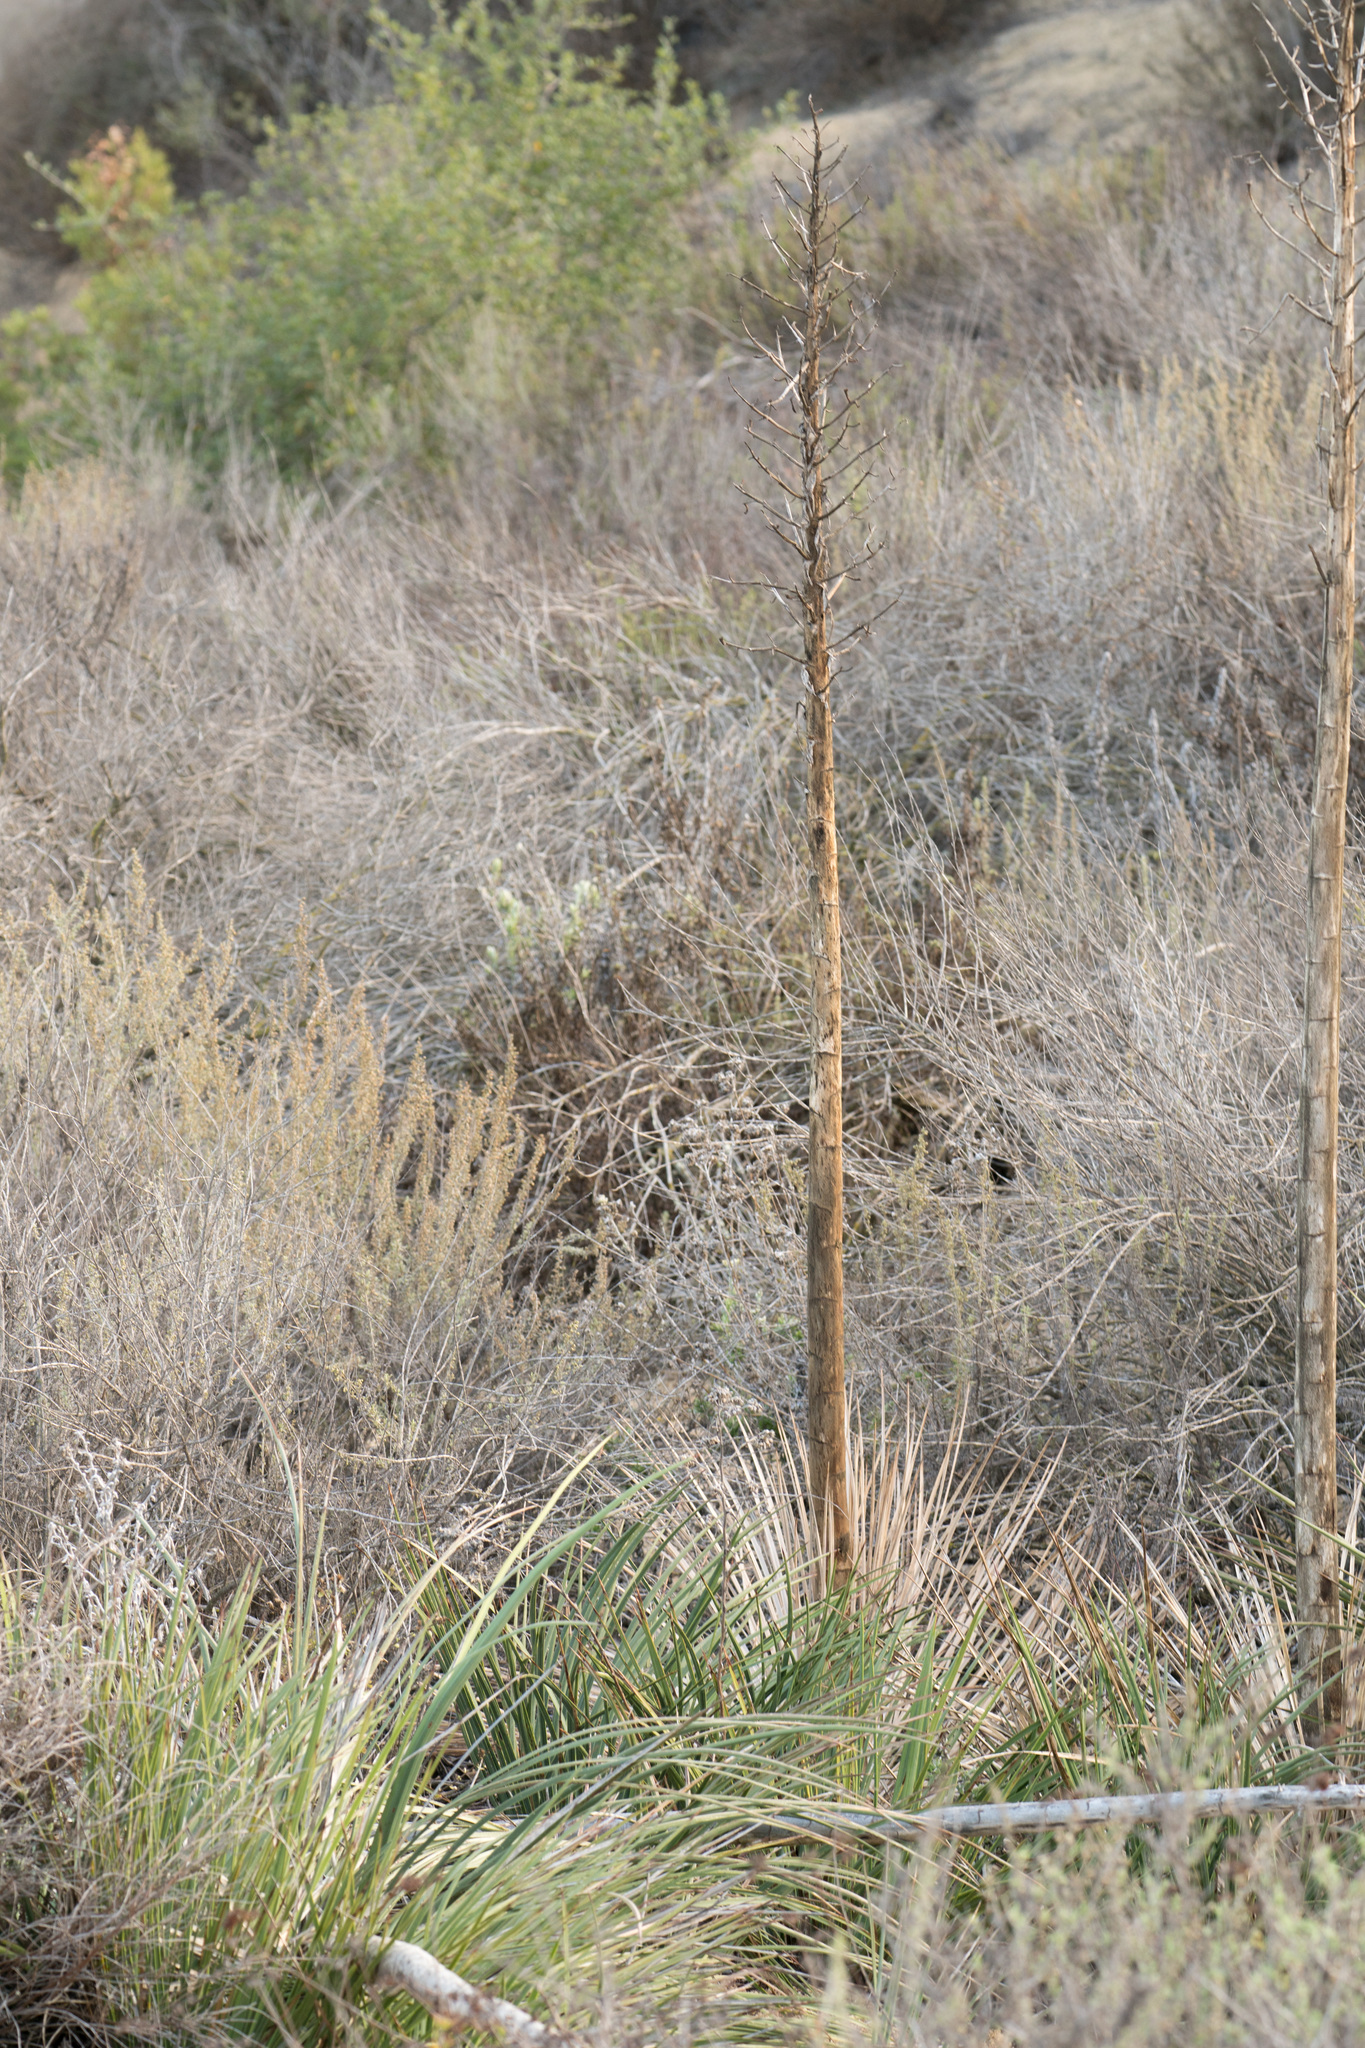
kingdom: Plantae
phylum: Tracheophyta
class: Liliopsida
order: Asparagales
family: Asparagaceae
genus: Hesperoyucca
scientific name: Hesperoyucca whipplei
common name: Our lord's-candle
